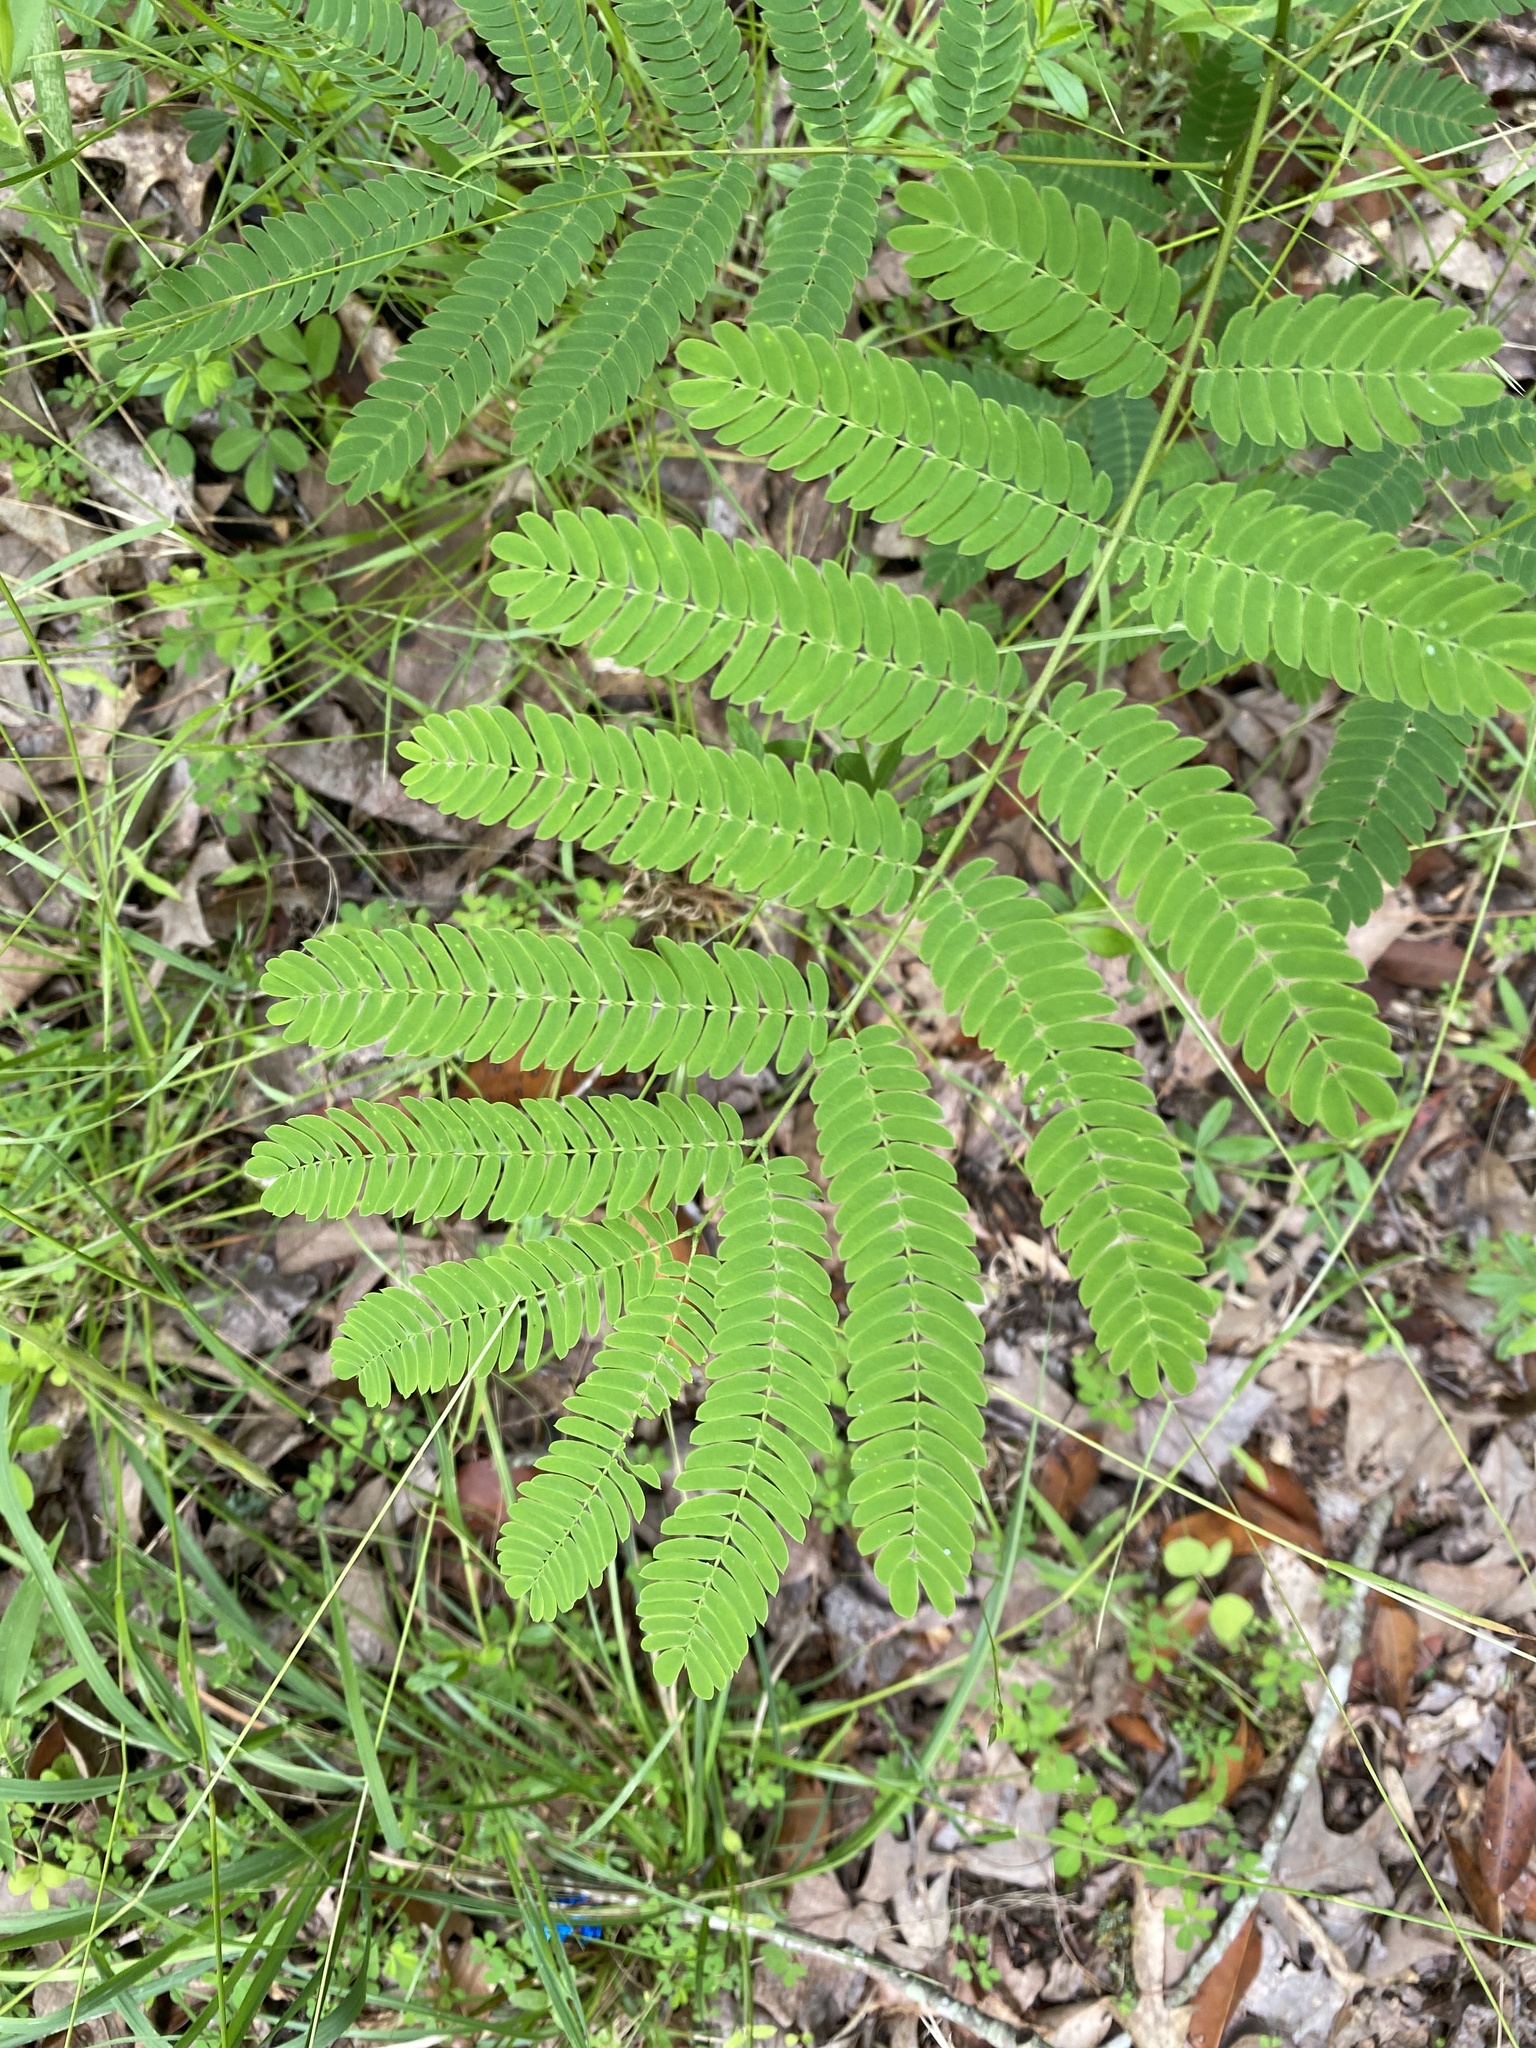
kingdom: Plantae
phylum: Tracheophyta
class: Magnoliopsida
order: Fabales
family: Fabaceae
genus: Albizia
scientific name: Albizia julibrissin
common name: Silktree
